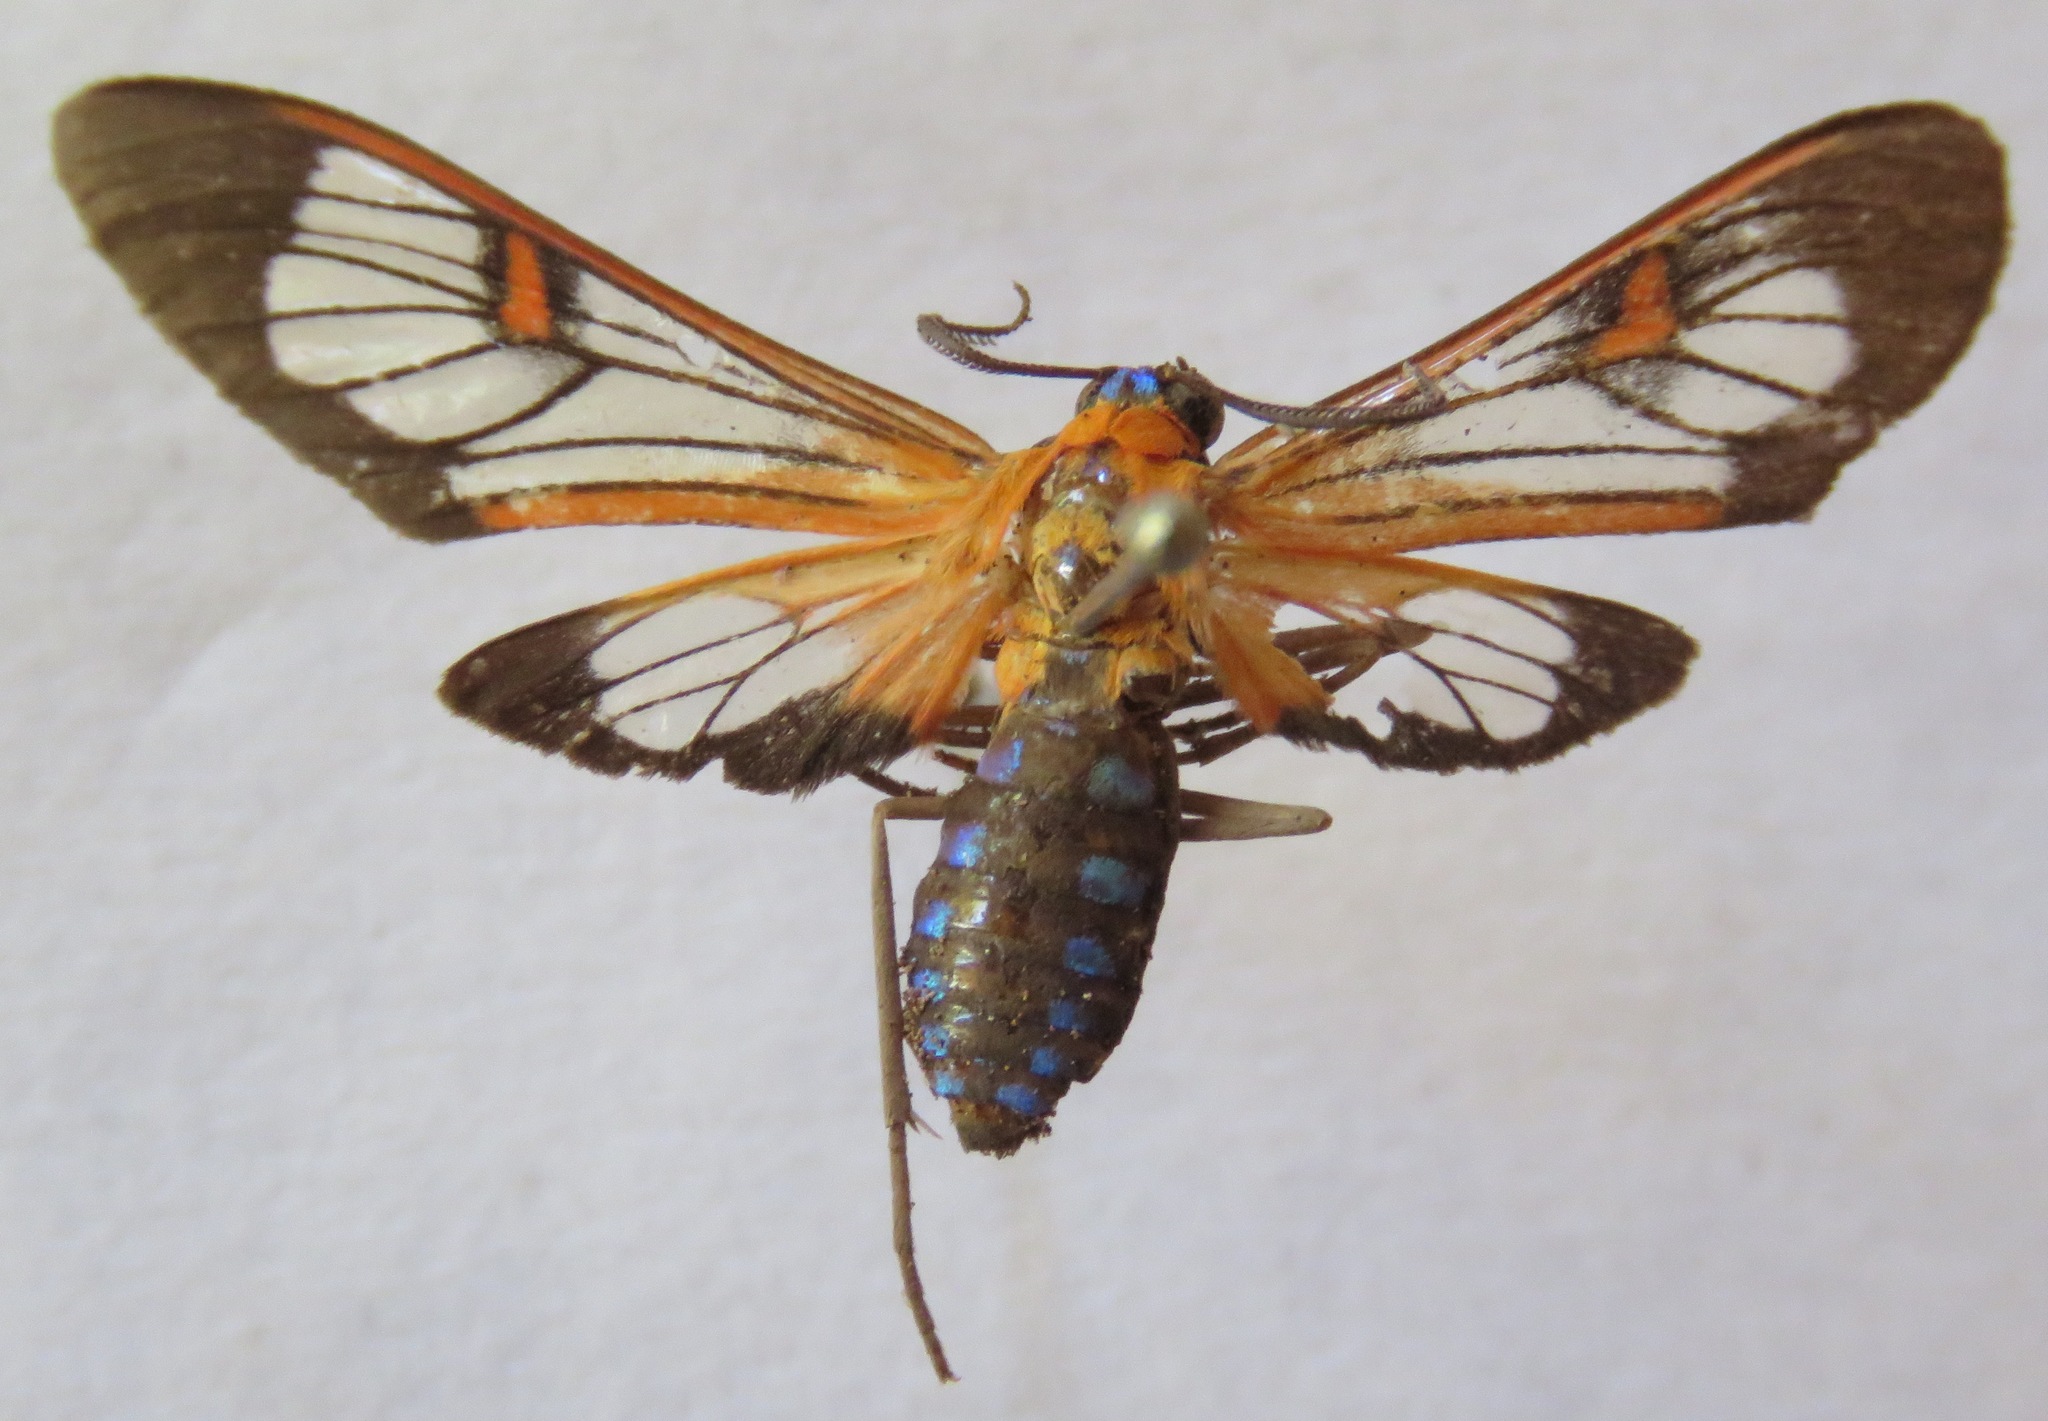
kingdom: Animalia
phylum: Arthropoda
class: Insecta
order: Lepidoptera
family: Erebidae
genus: Lepidoneiva
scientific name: Lepidoneiva teuthras
